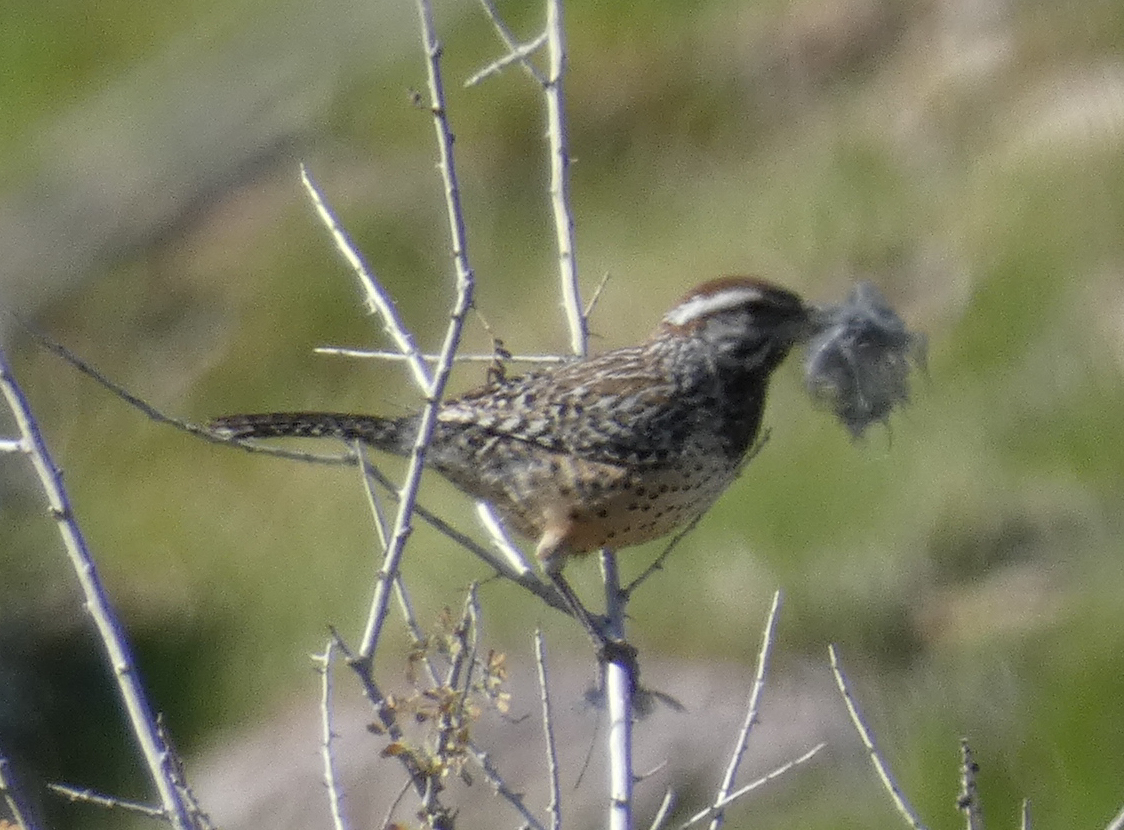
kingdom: Animalia
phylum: Chordata
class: Aves
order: Passeriformes
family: Troglodytidae
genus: Campylorhynchus
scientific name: Campylorhynchus brunneicapillus
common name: Cactus wren
